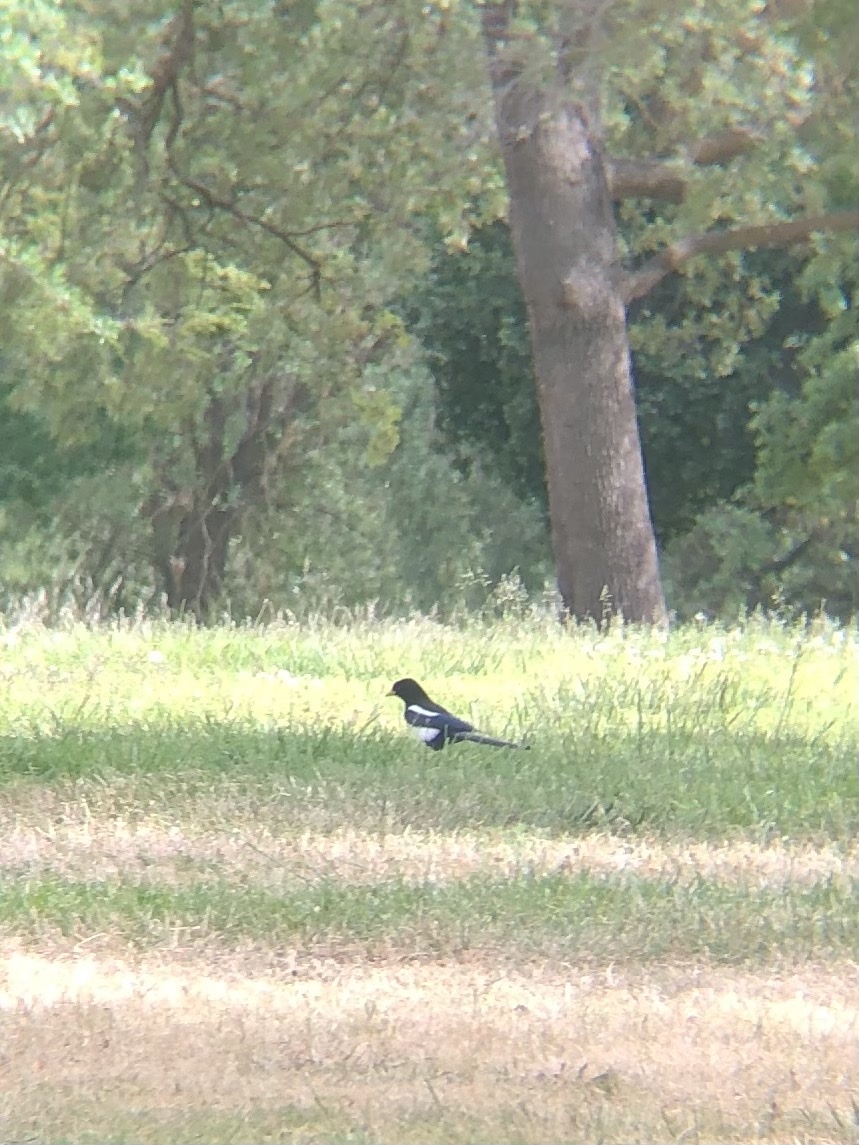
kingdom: Animalia
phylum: Chordata
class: Aves
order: Passeriformes
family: Corvidae
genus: Pica
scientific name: Pica nuttalli
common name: Yellow-billed magpie
